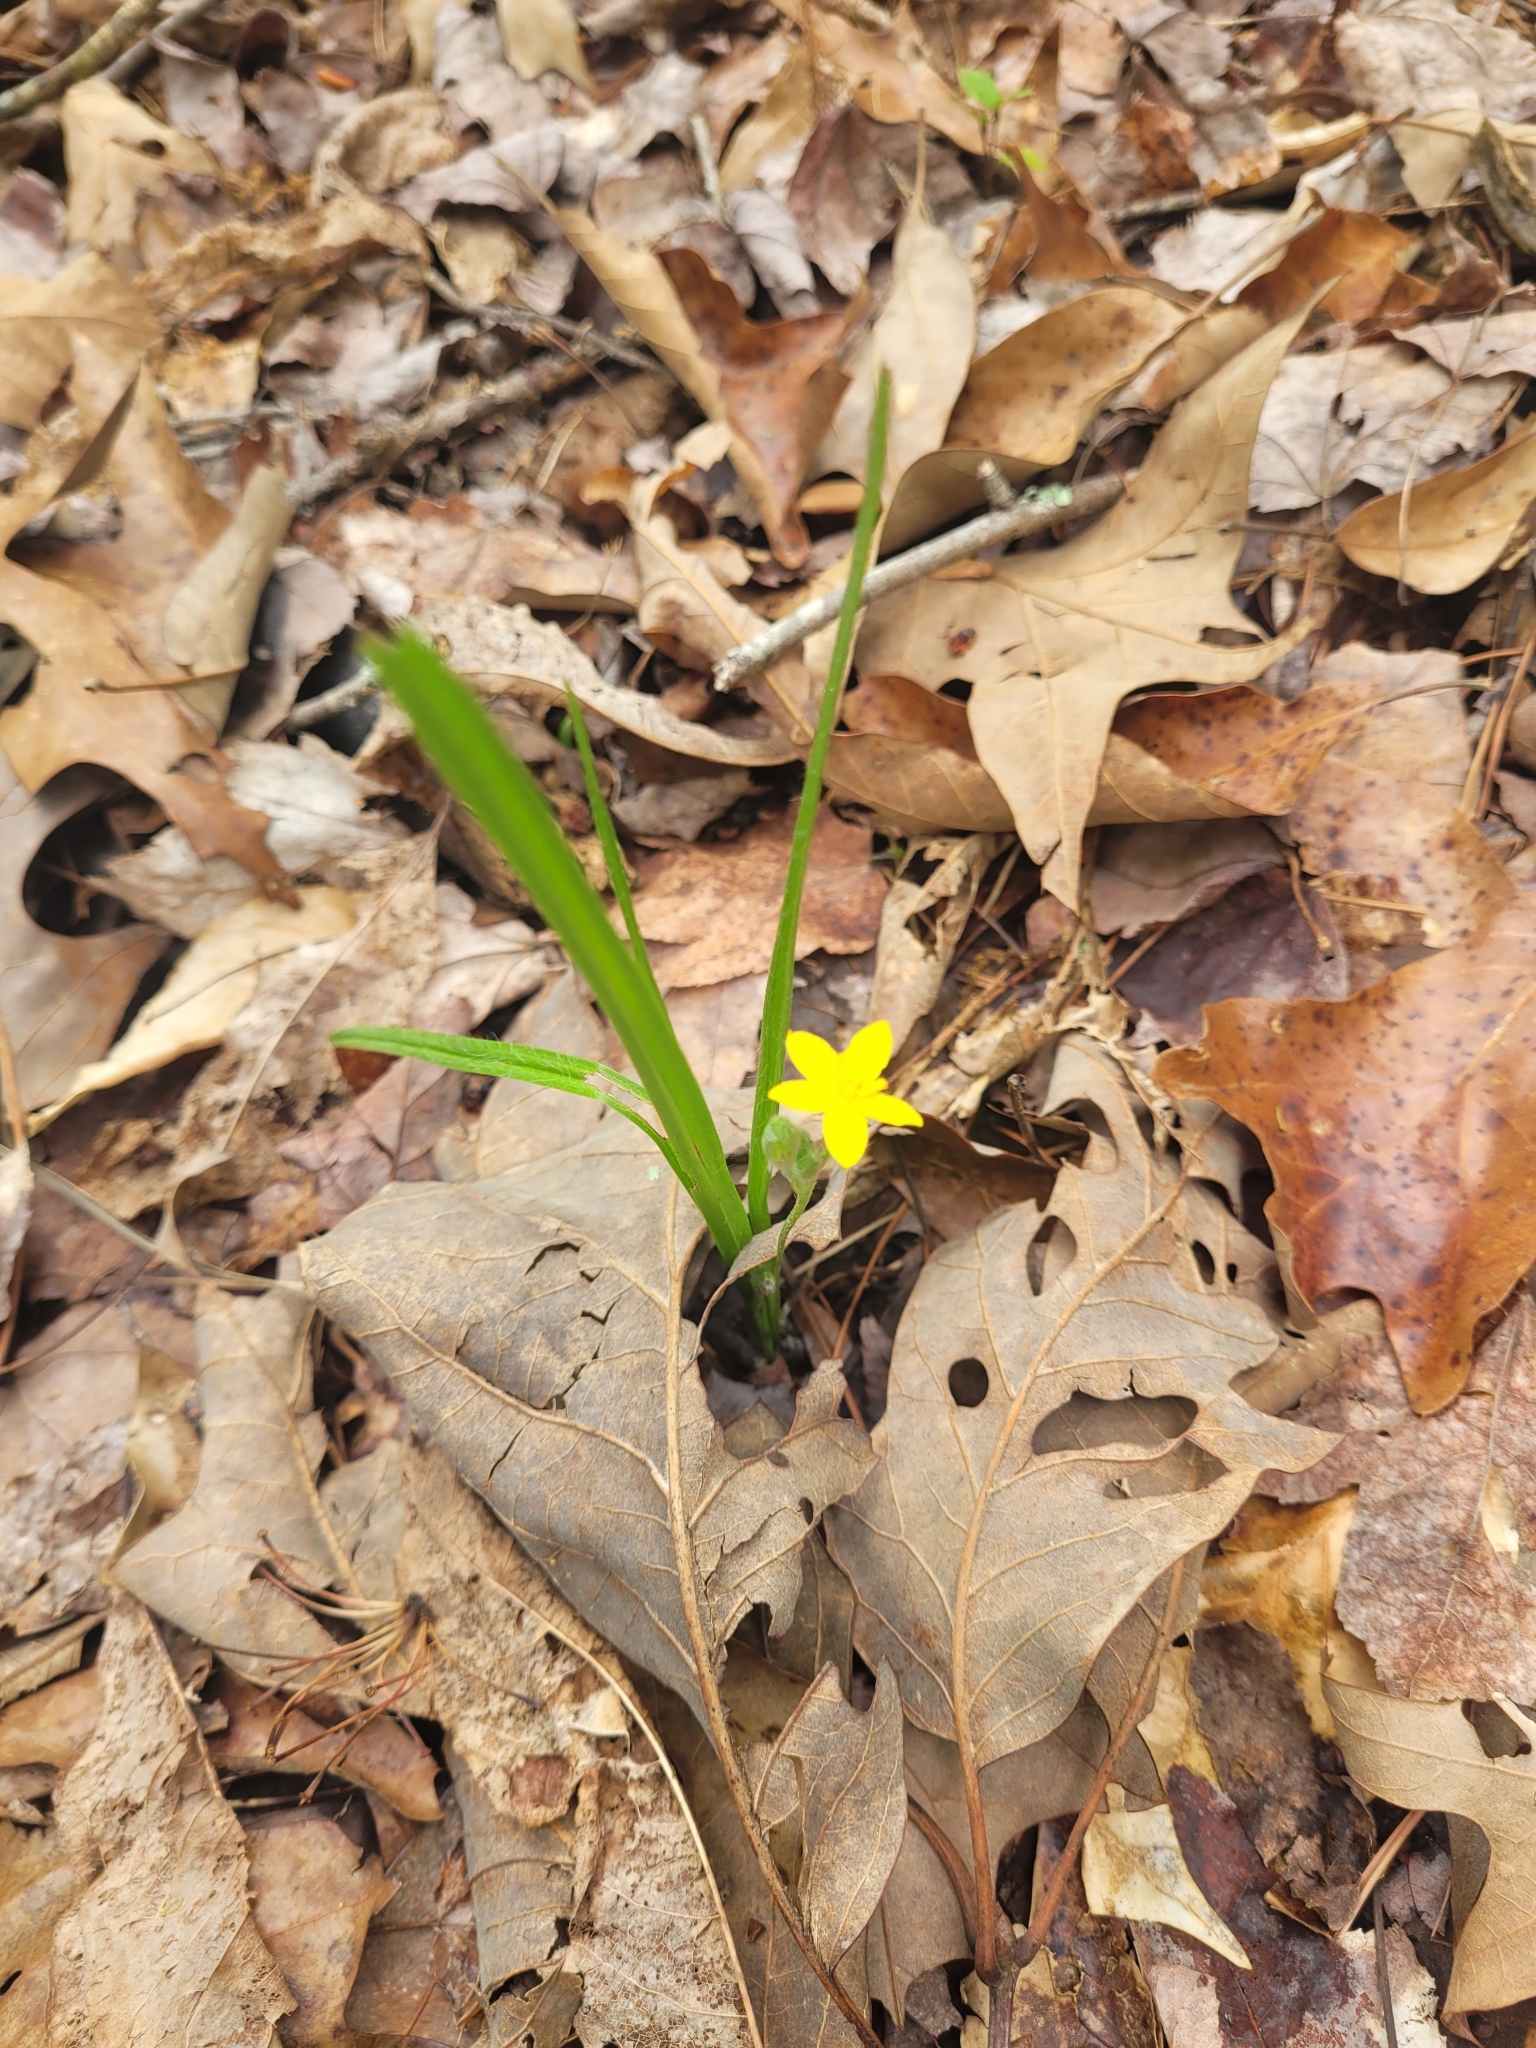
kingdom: Plantae
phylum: Tracheophyta
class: Liliopsida
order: Asparagales
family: Hypoxidaceae
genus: Hypoxis
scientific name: Hypoxis hirsuta
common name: Common goldstar
